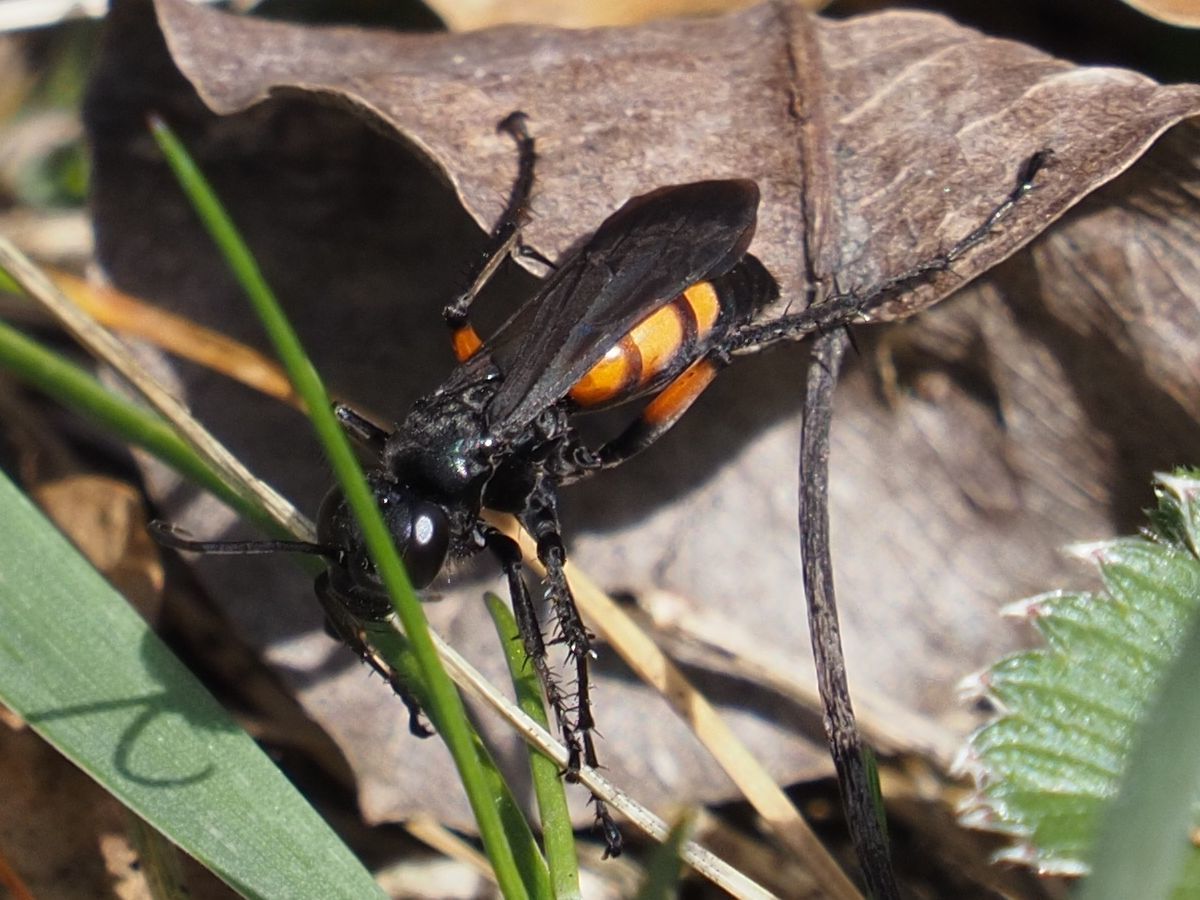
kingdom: Animalia
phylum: Arthropoda
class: Insecta
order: Hymenoptera
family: Pompilidae
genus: Anoplius
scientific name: Anoplius viaticus
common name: Black banded spider wasp
